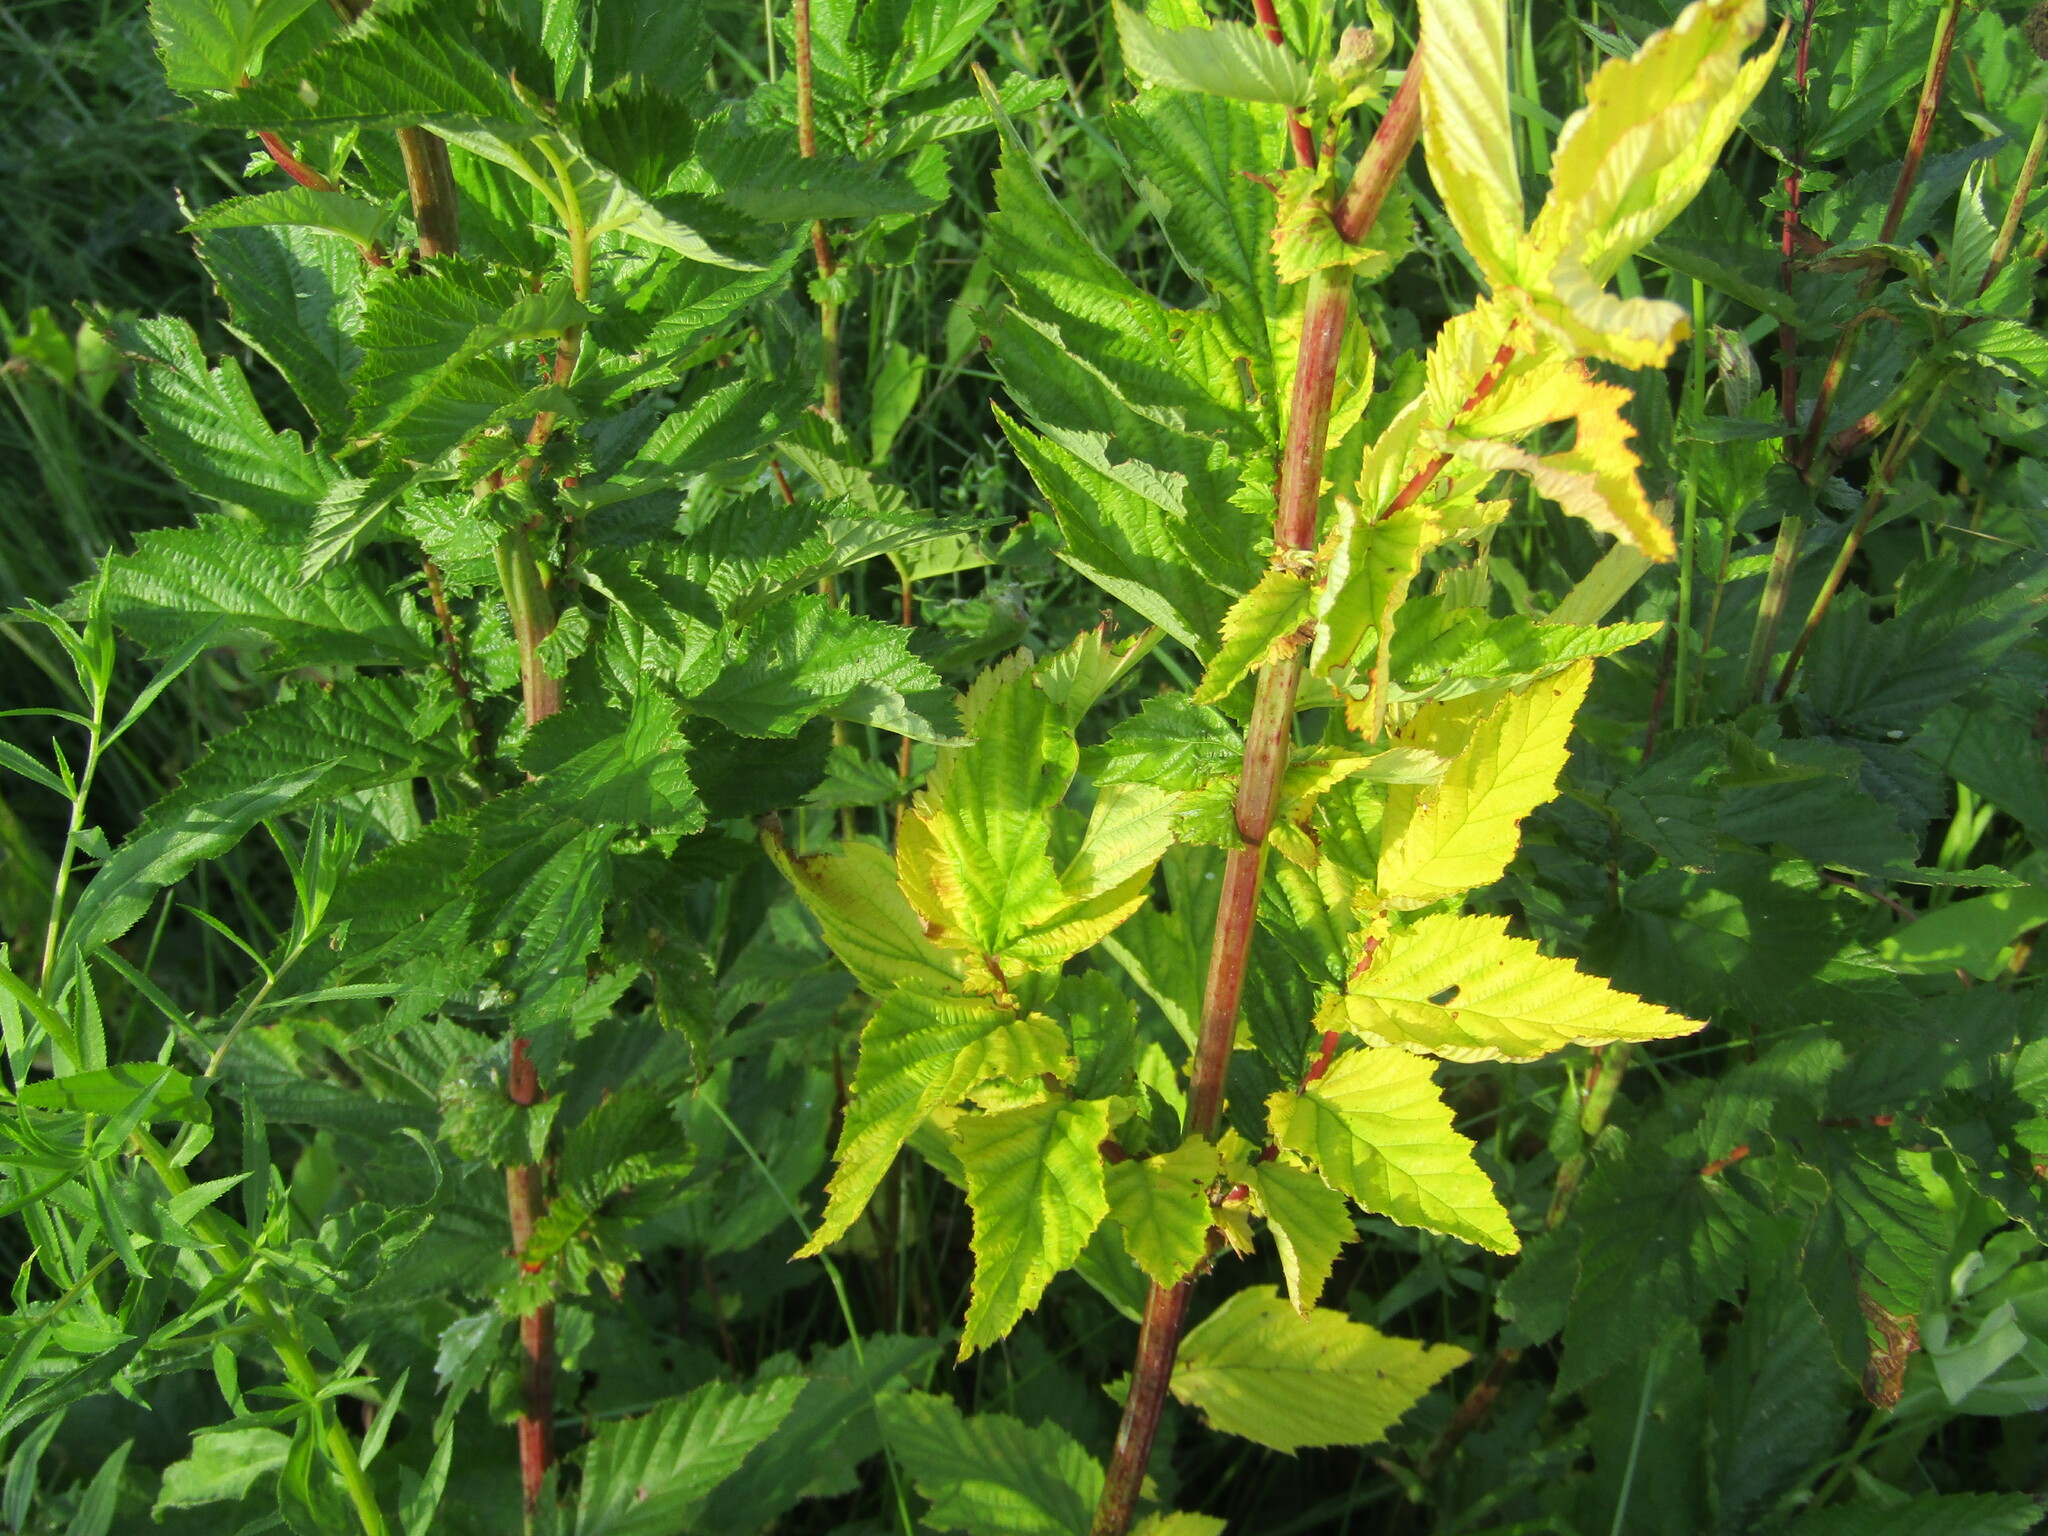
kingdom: Plantae
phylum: Tracheophyta
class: Magnoliopsida
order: Rosales
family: Rosaceae
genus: Filipendula
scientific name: Filipendula ulmaria
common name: Meadowsweet
